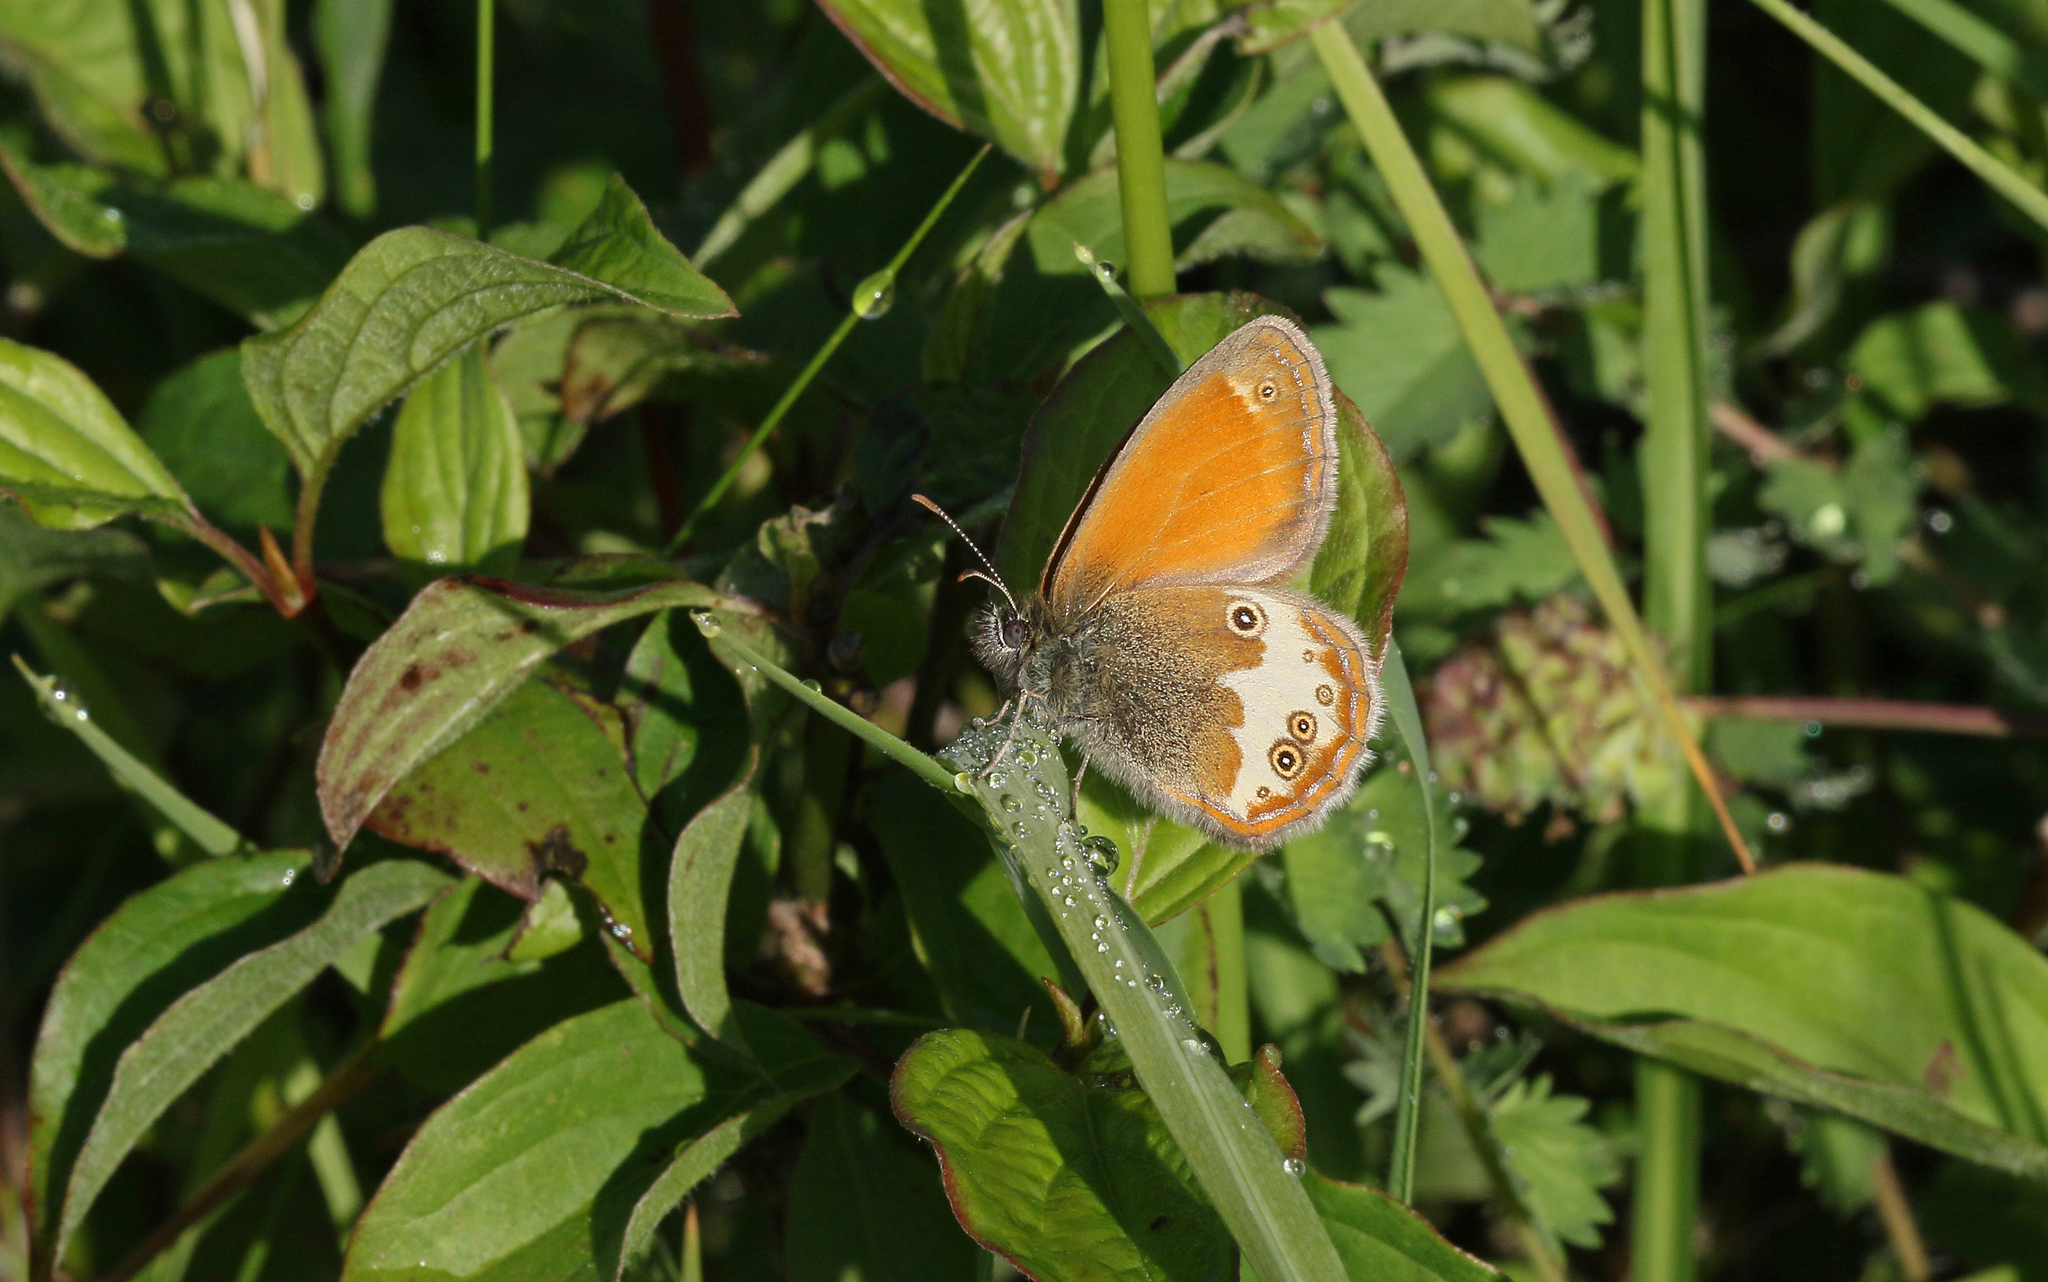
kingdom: Animalia
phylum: Arthropoda
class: Insecta
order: Lepidoptera
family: Nymphalidae
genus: Coenonympha
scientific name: Coenonympha arcania
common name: Pearly heath
